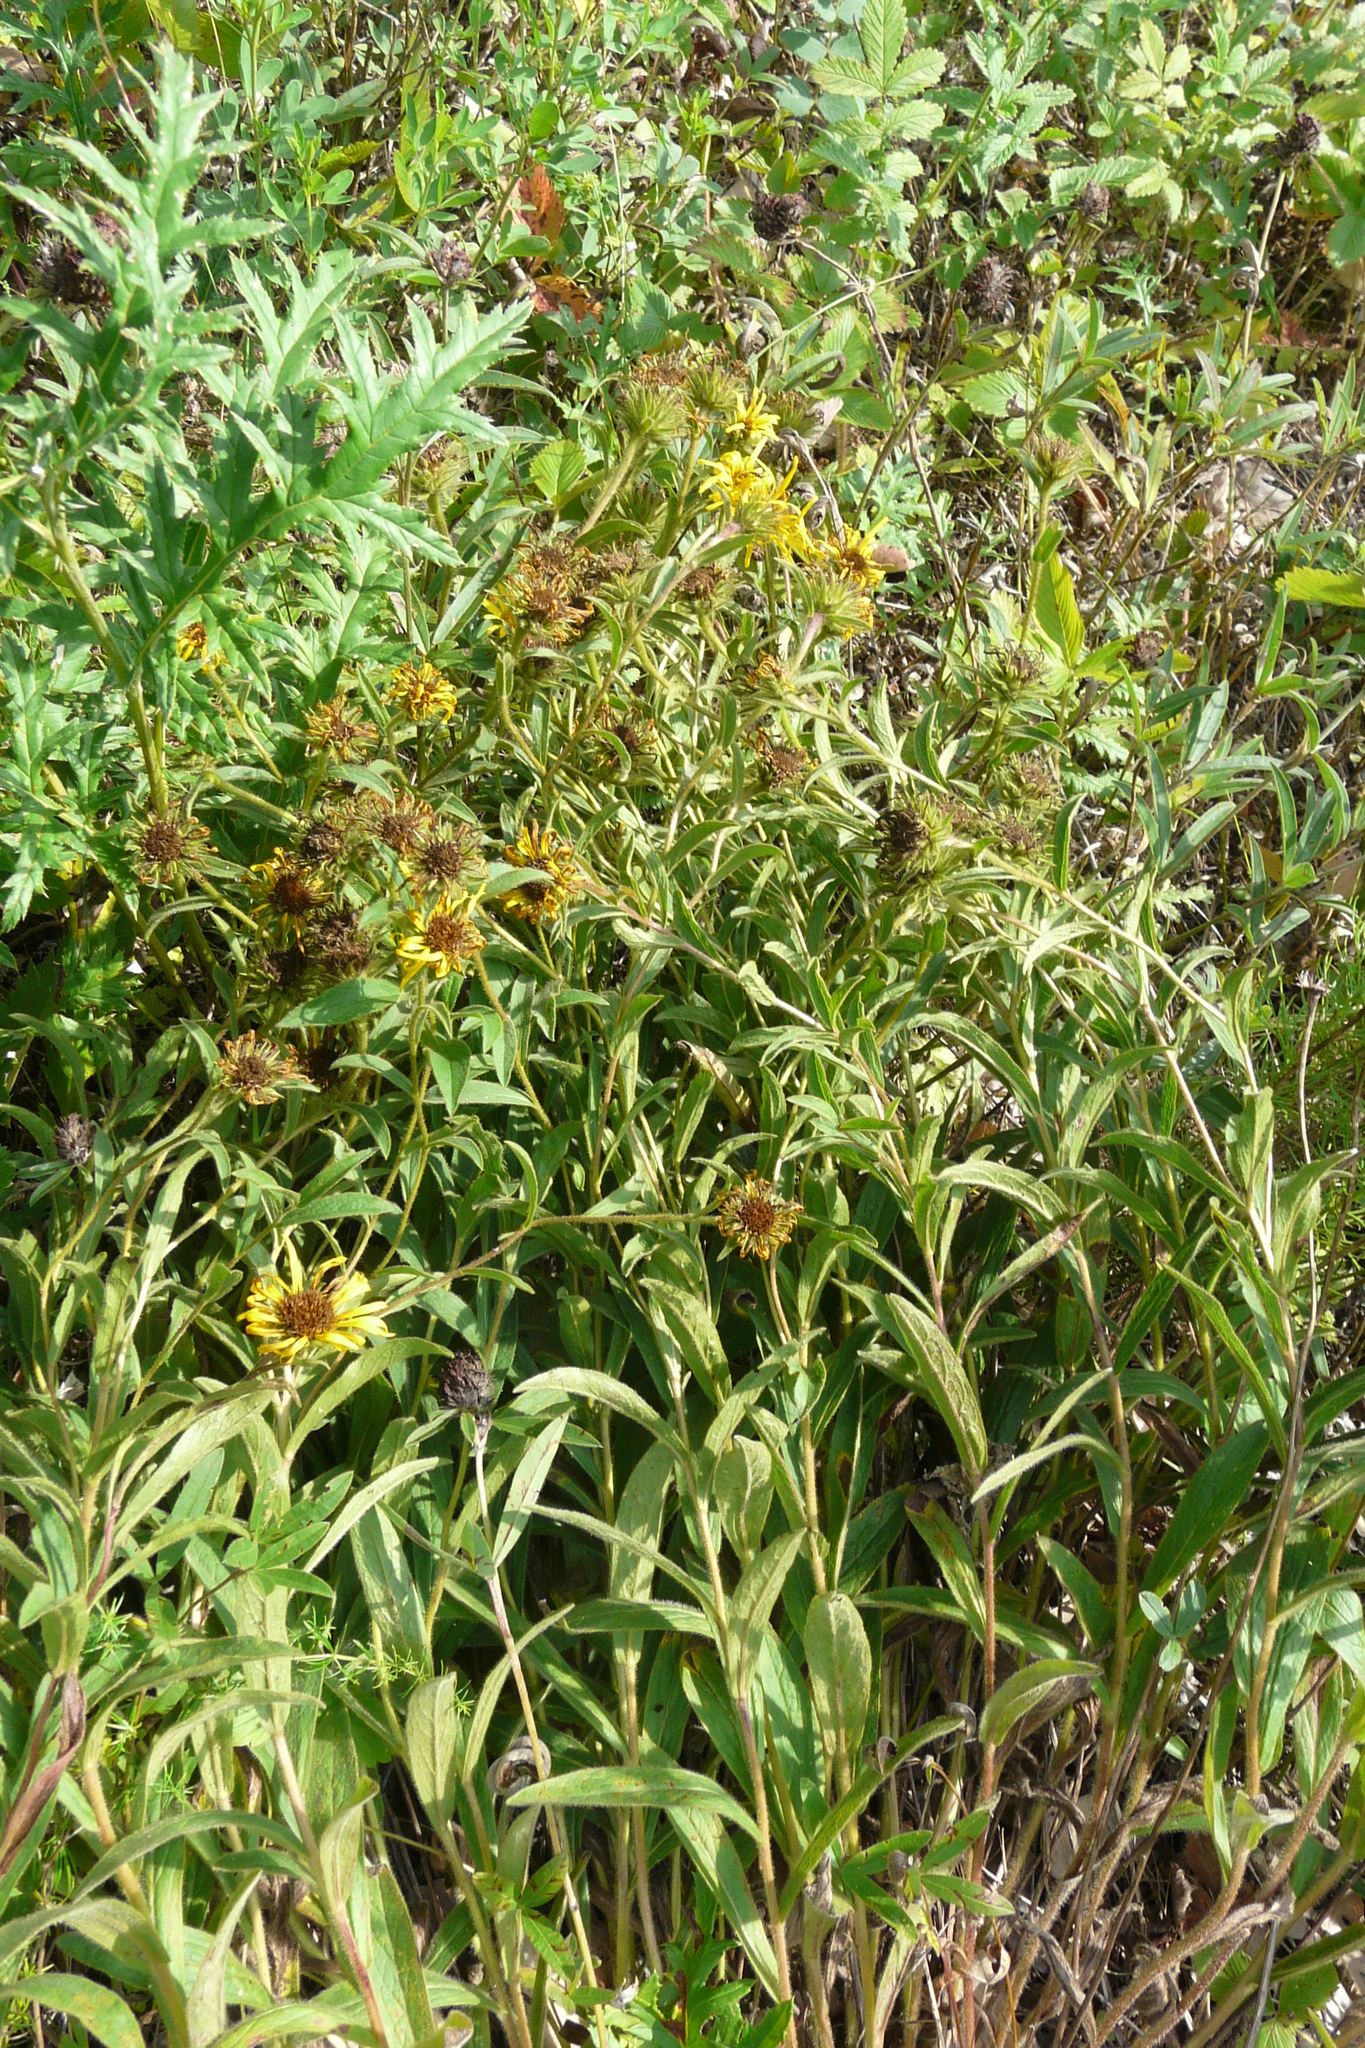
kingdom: Plantae
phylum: Tracheophyta
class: Magnoliopsida
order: Asterales
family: Asteraceae
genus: Pentanema
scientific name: Pentanema hirtum
